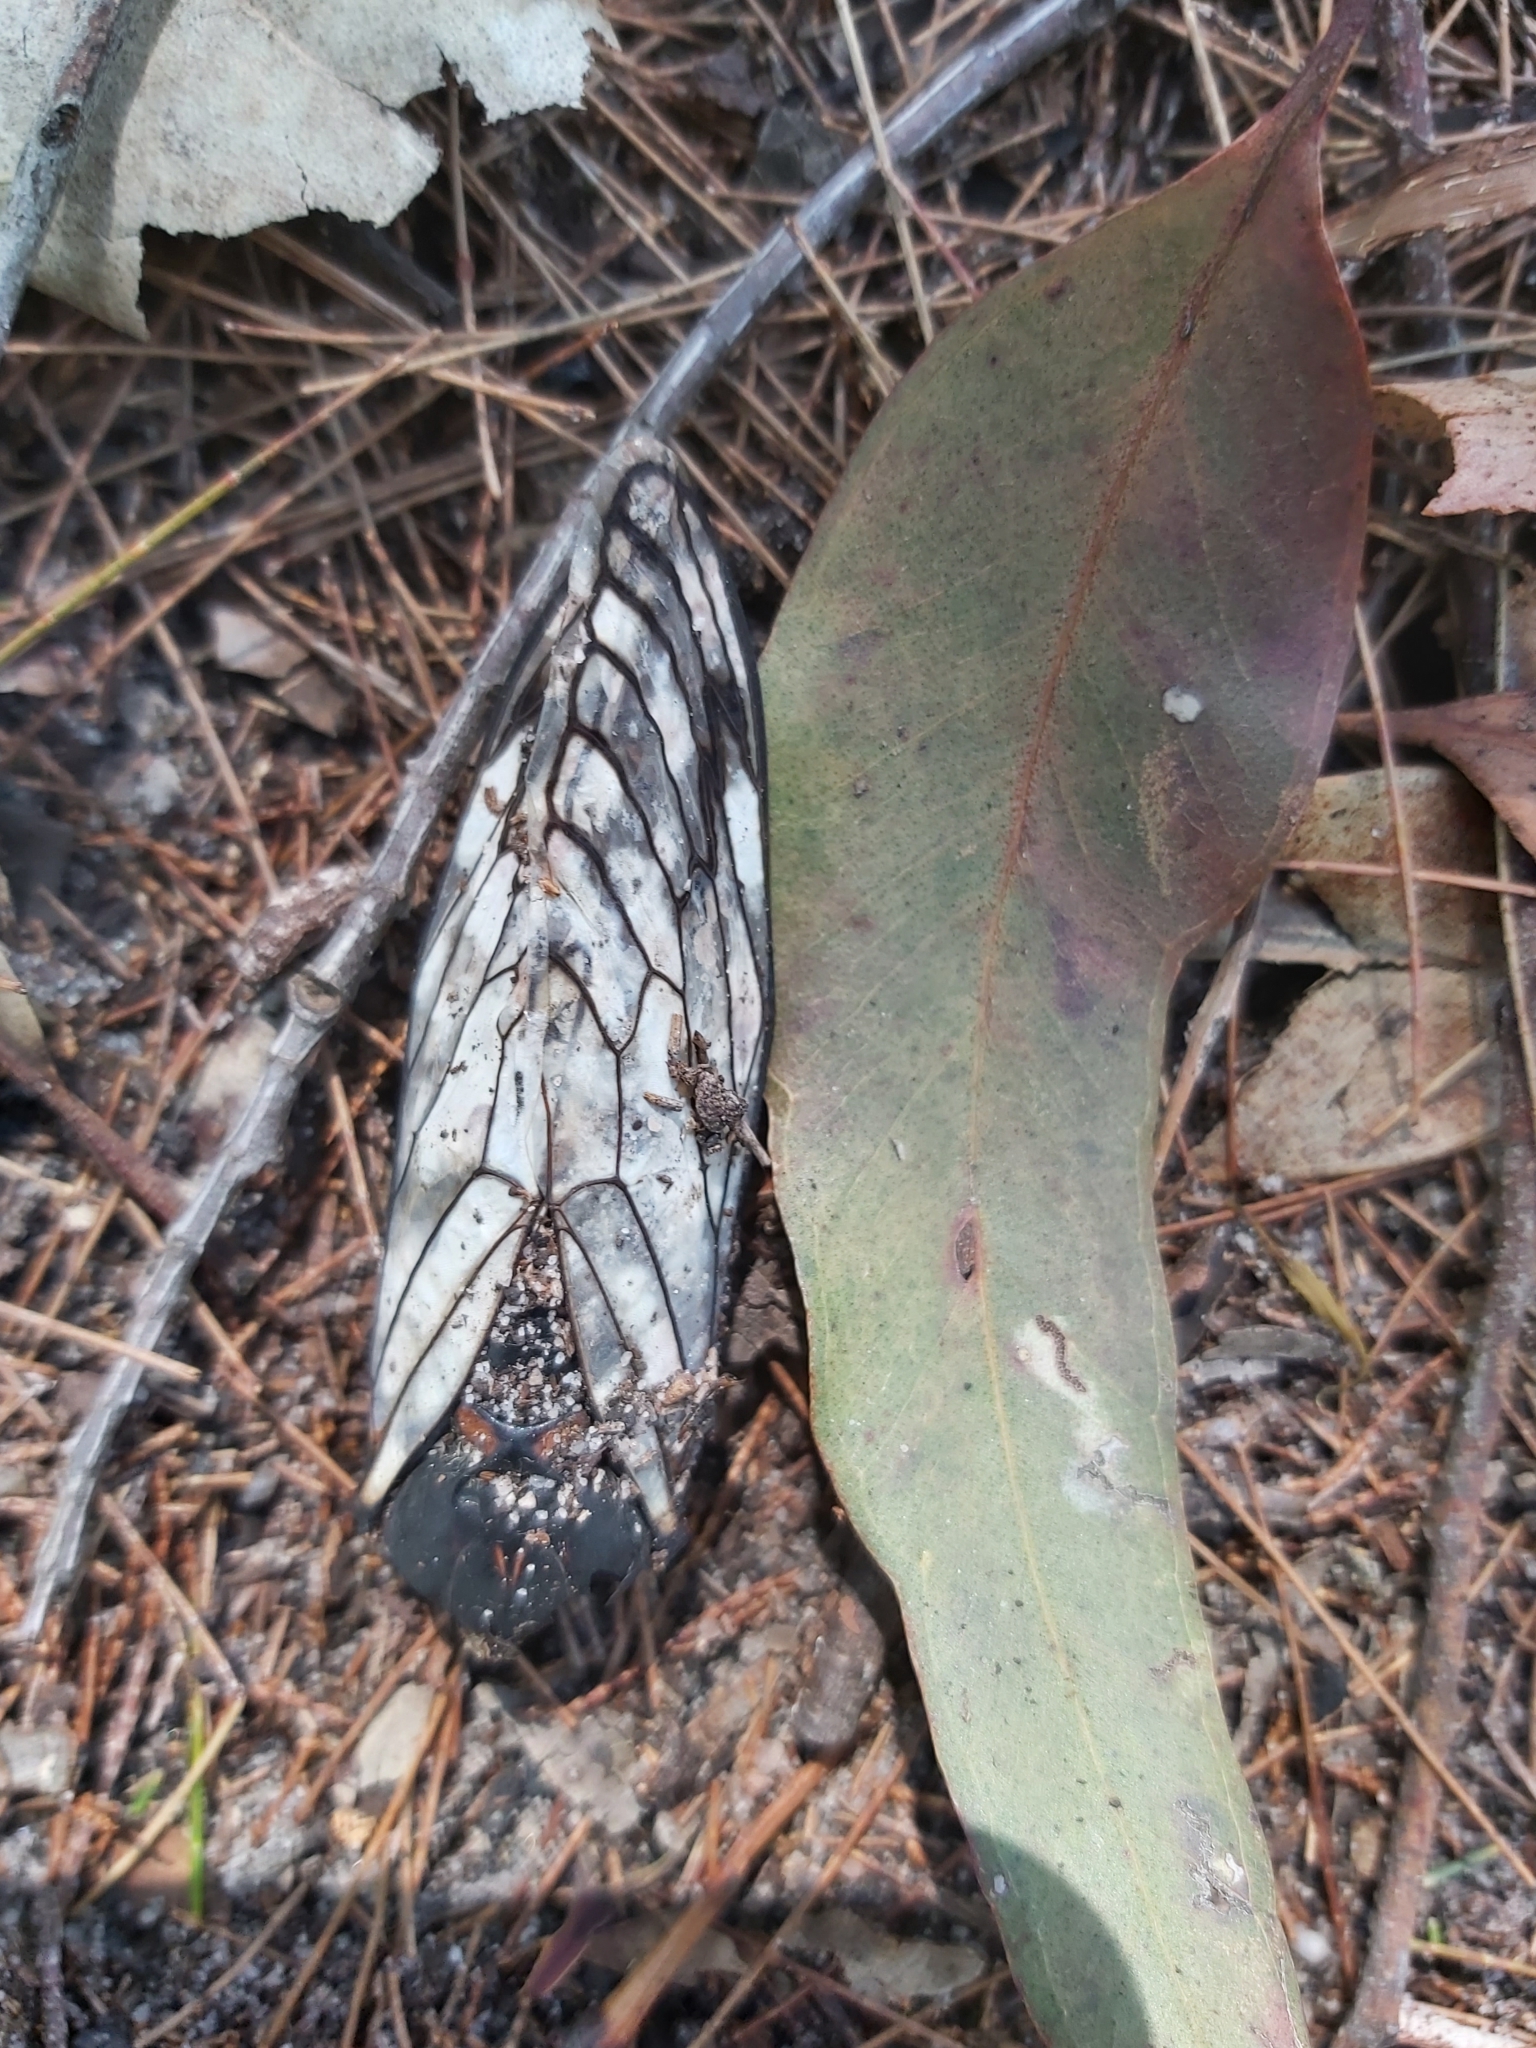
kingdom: Animalia
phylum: Arthropoda
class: Insecta
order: Hemiptera
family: Cicadidae
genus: Psaltoda
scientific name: Psaltoda moerens
